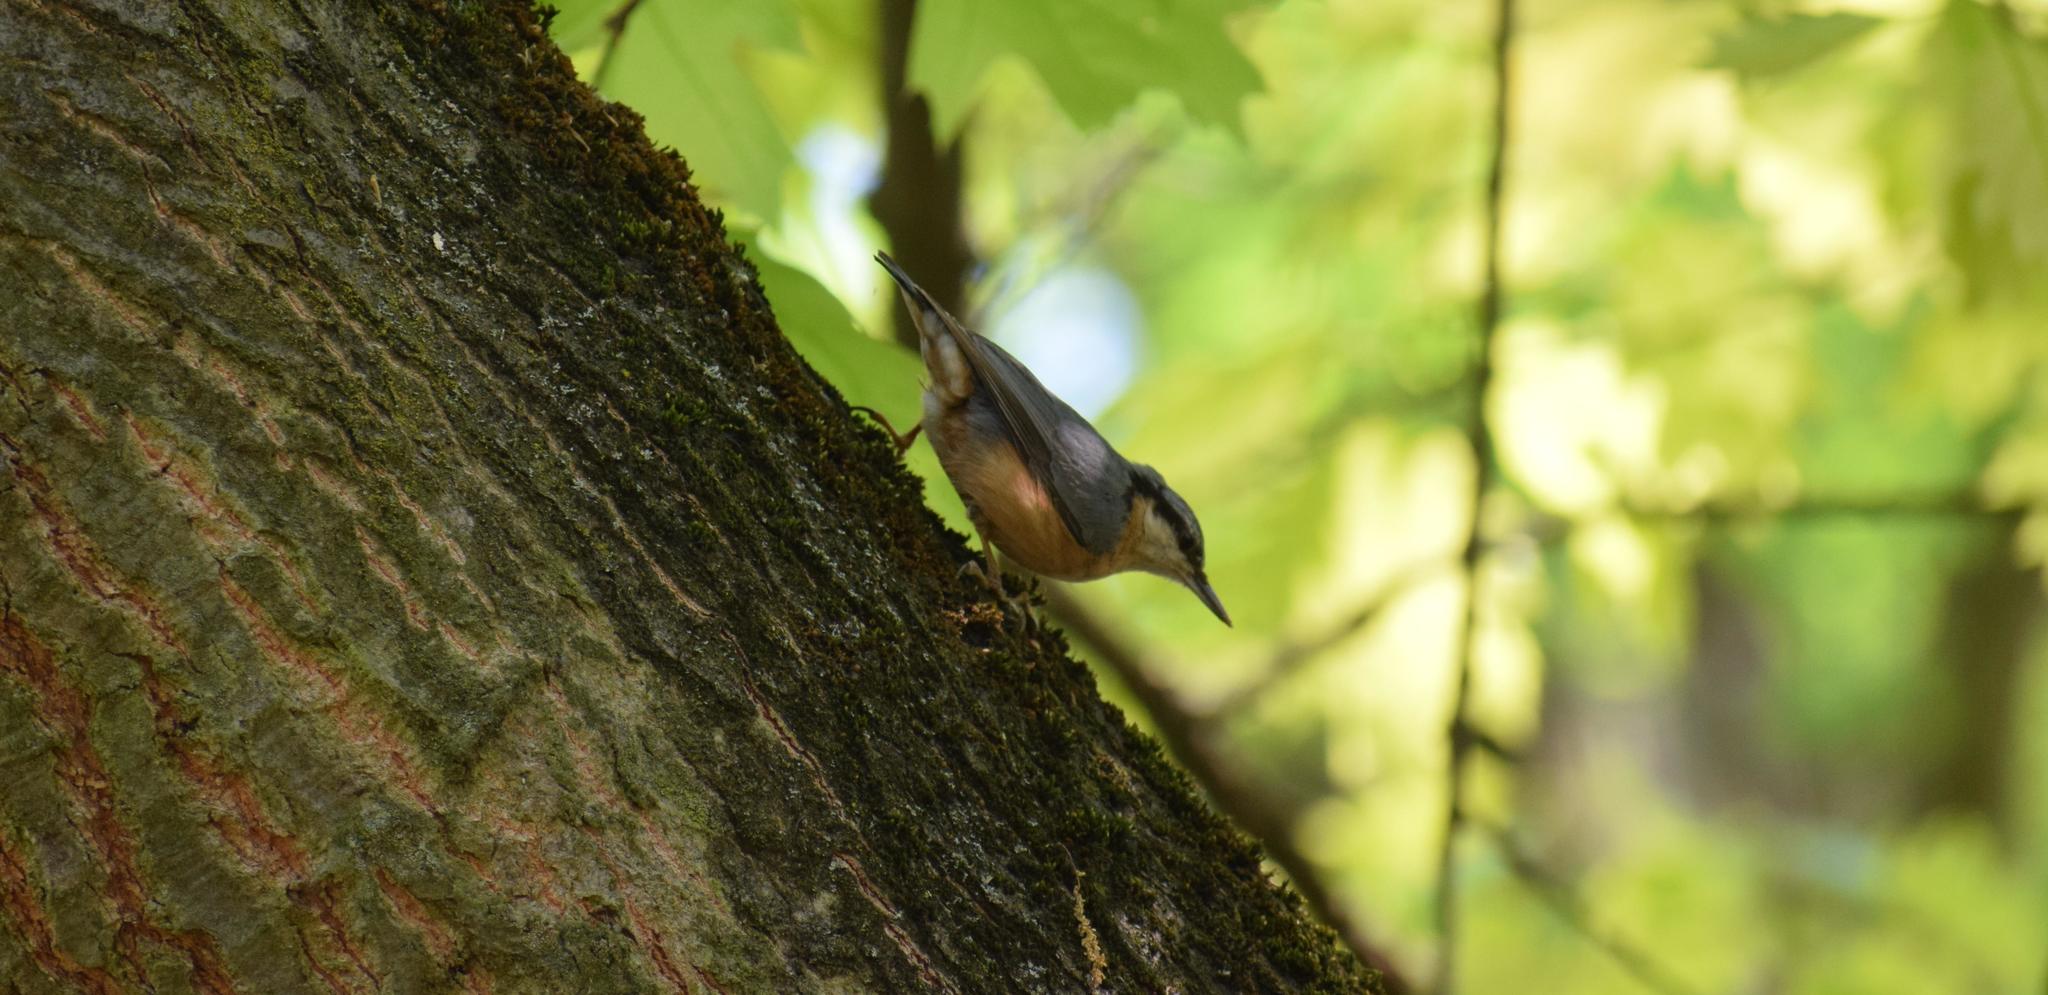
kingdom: Animalia
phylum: Chordata
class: Aves
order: Passeriformes
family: Sittidae
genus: Sitta
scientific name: Sitta europaea
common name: Eurasian nuthatch
